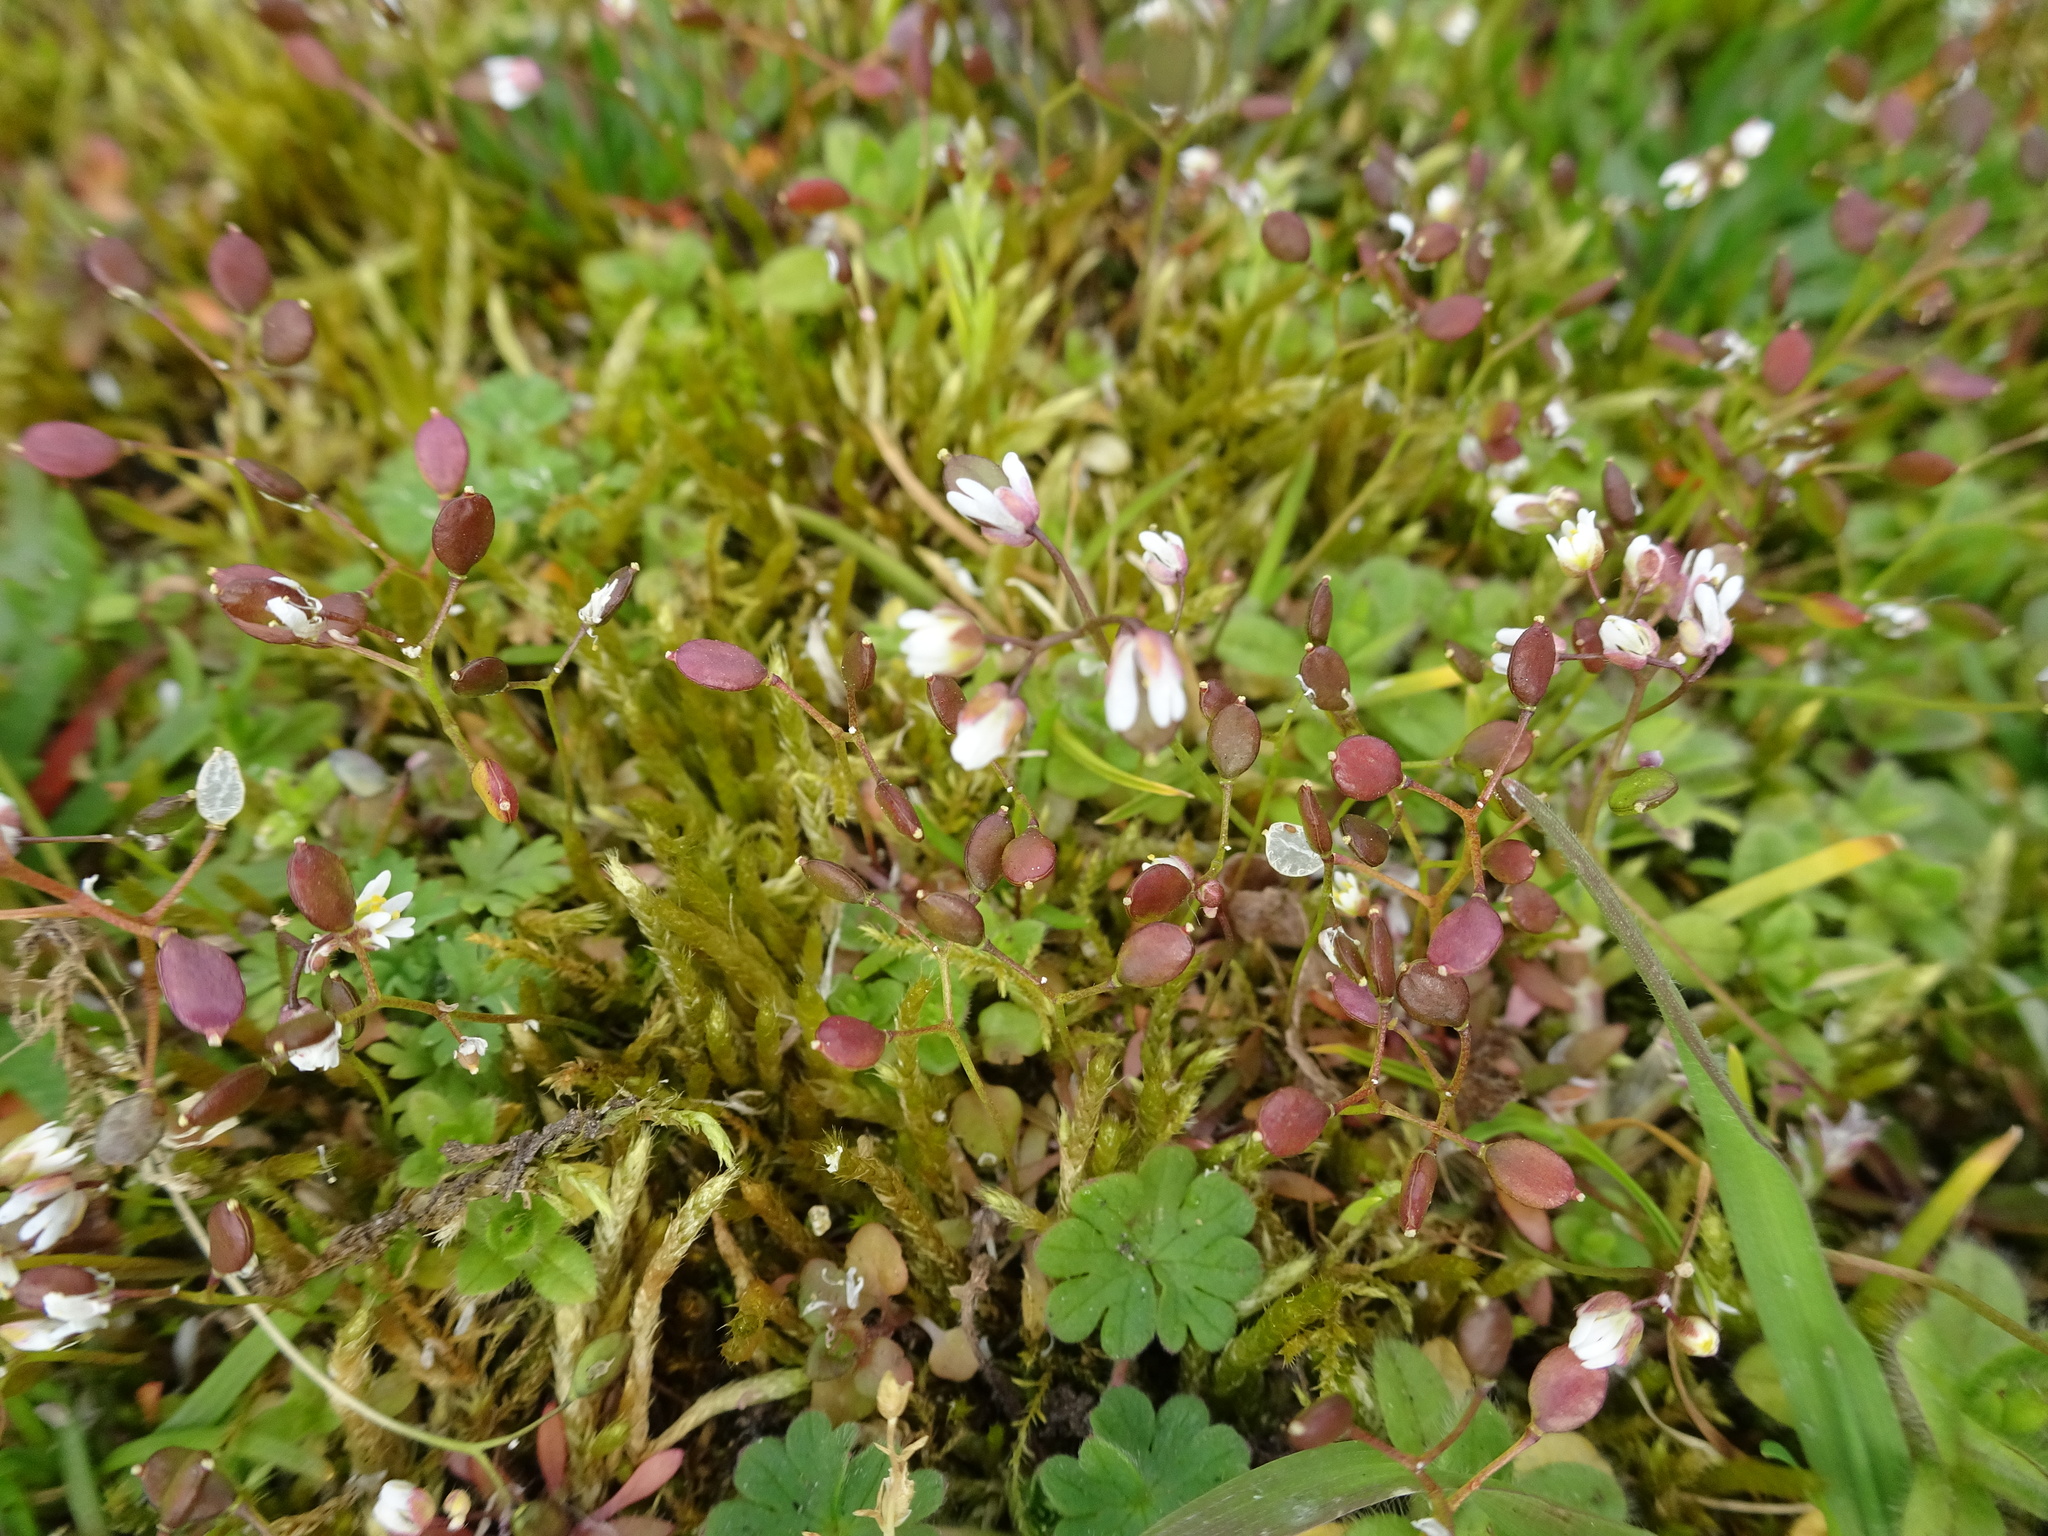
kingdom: Plantae
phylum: Tracheophyta
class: Magnoliopsida
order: Brassicales
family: Brassicaceae
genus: Draba
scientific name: Draba verna
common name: Spring draba
